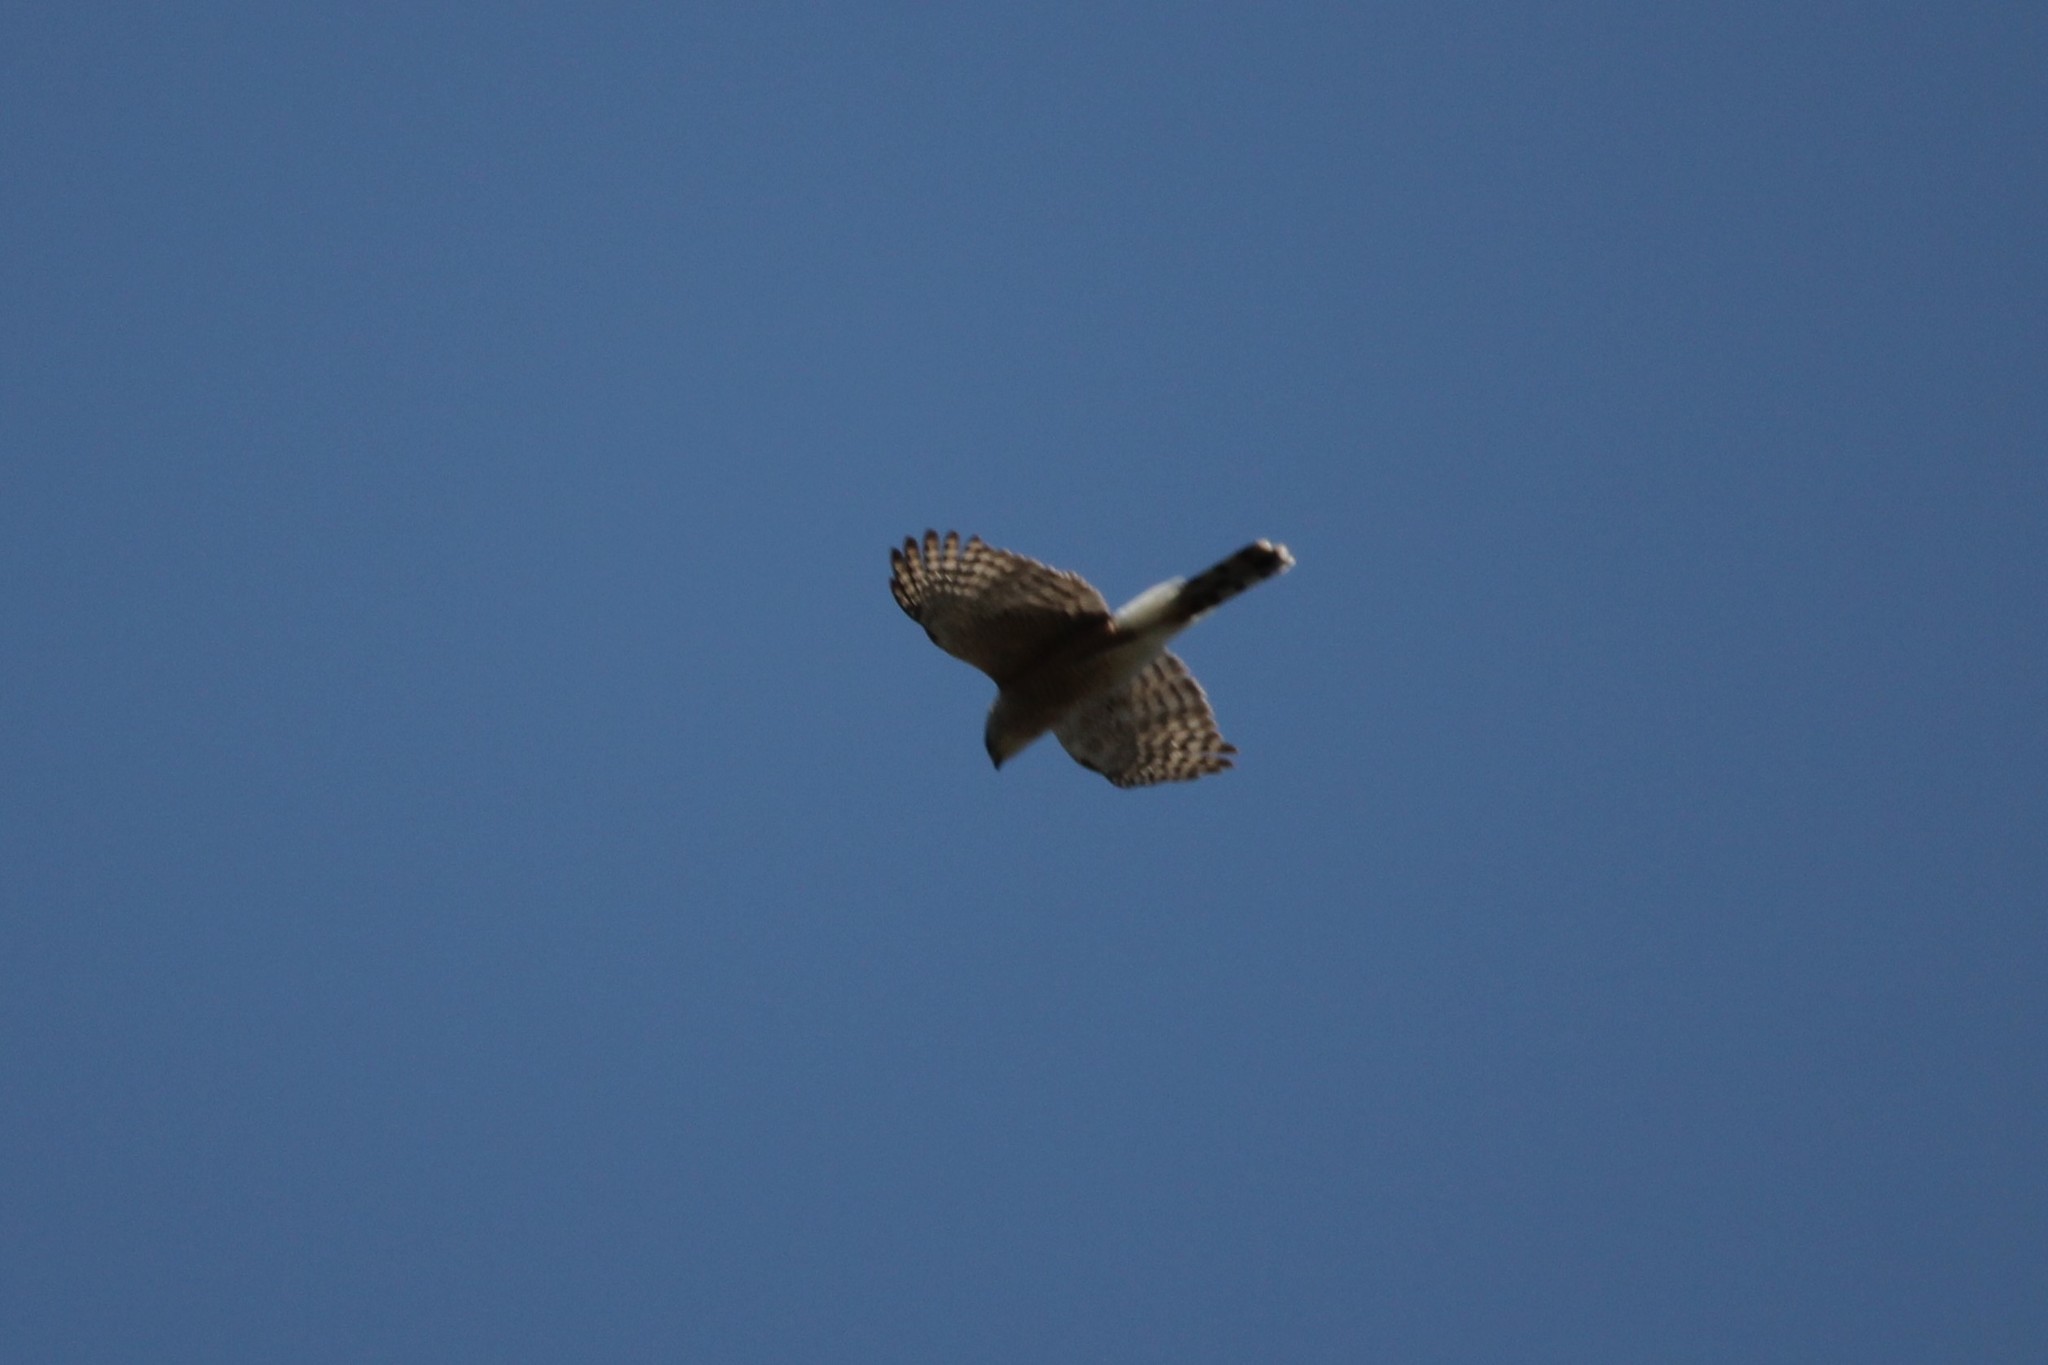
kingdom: Animalia
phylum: Chordata
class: Aves
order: Accipitriformes
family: Accipitridae
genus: Accipiter
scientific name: Accipiter cooperii
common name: Cooper's hawk
